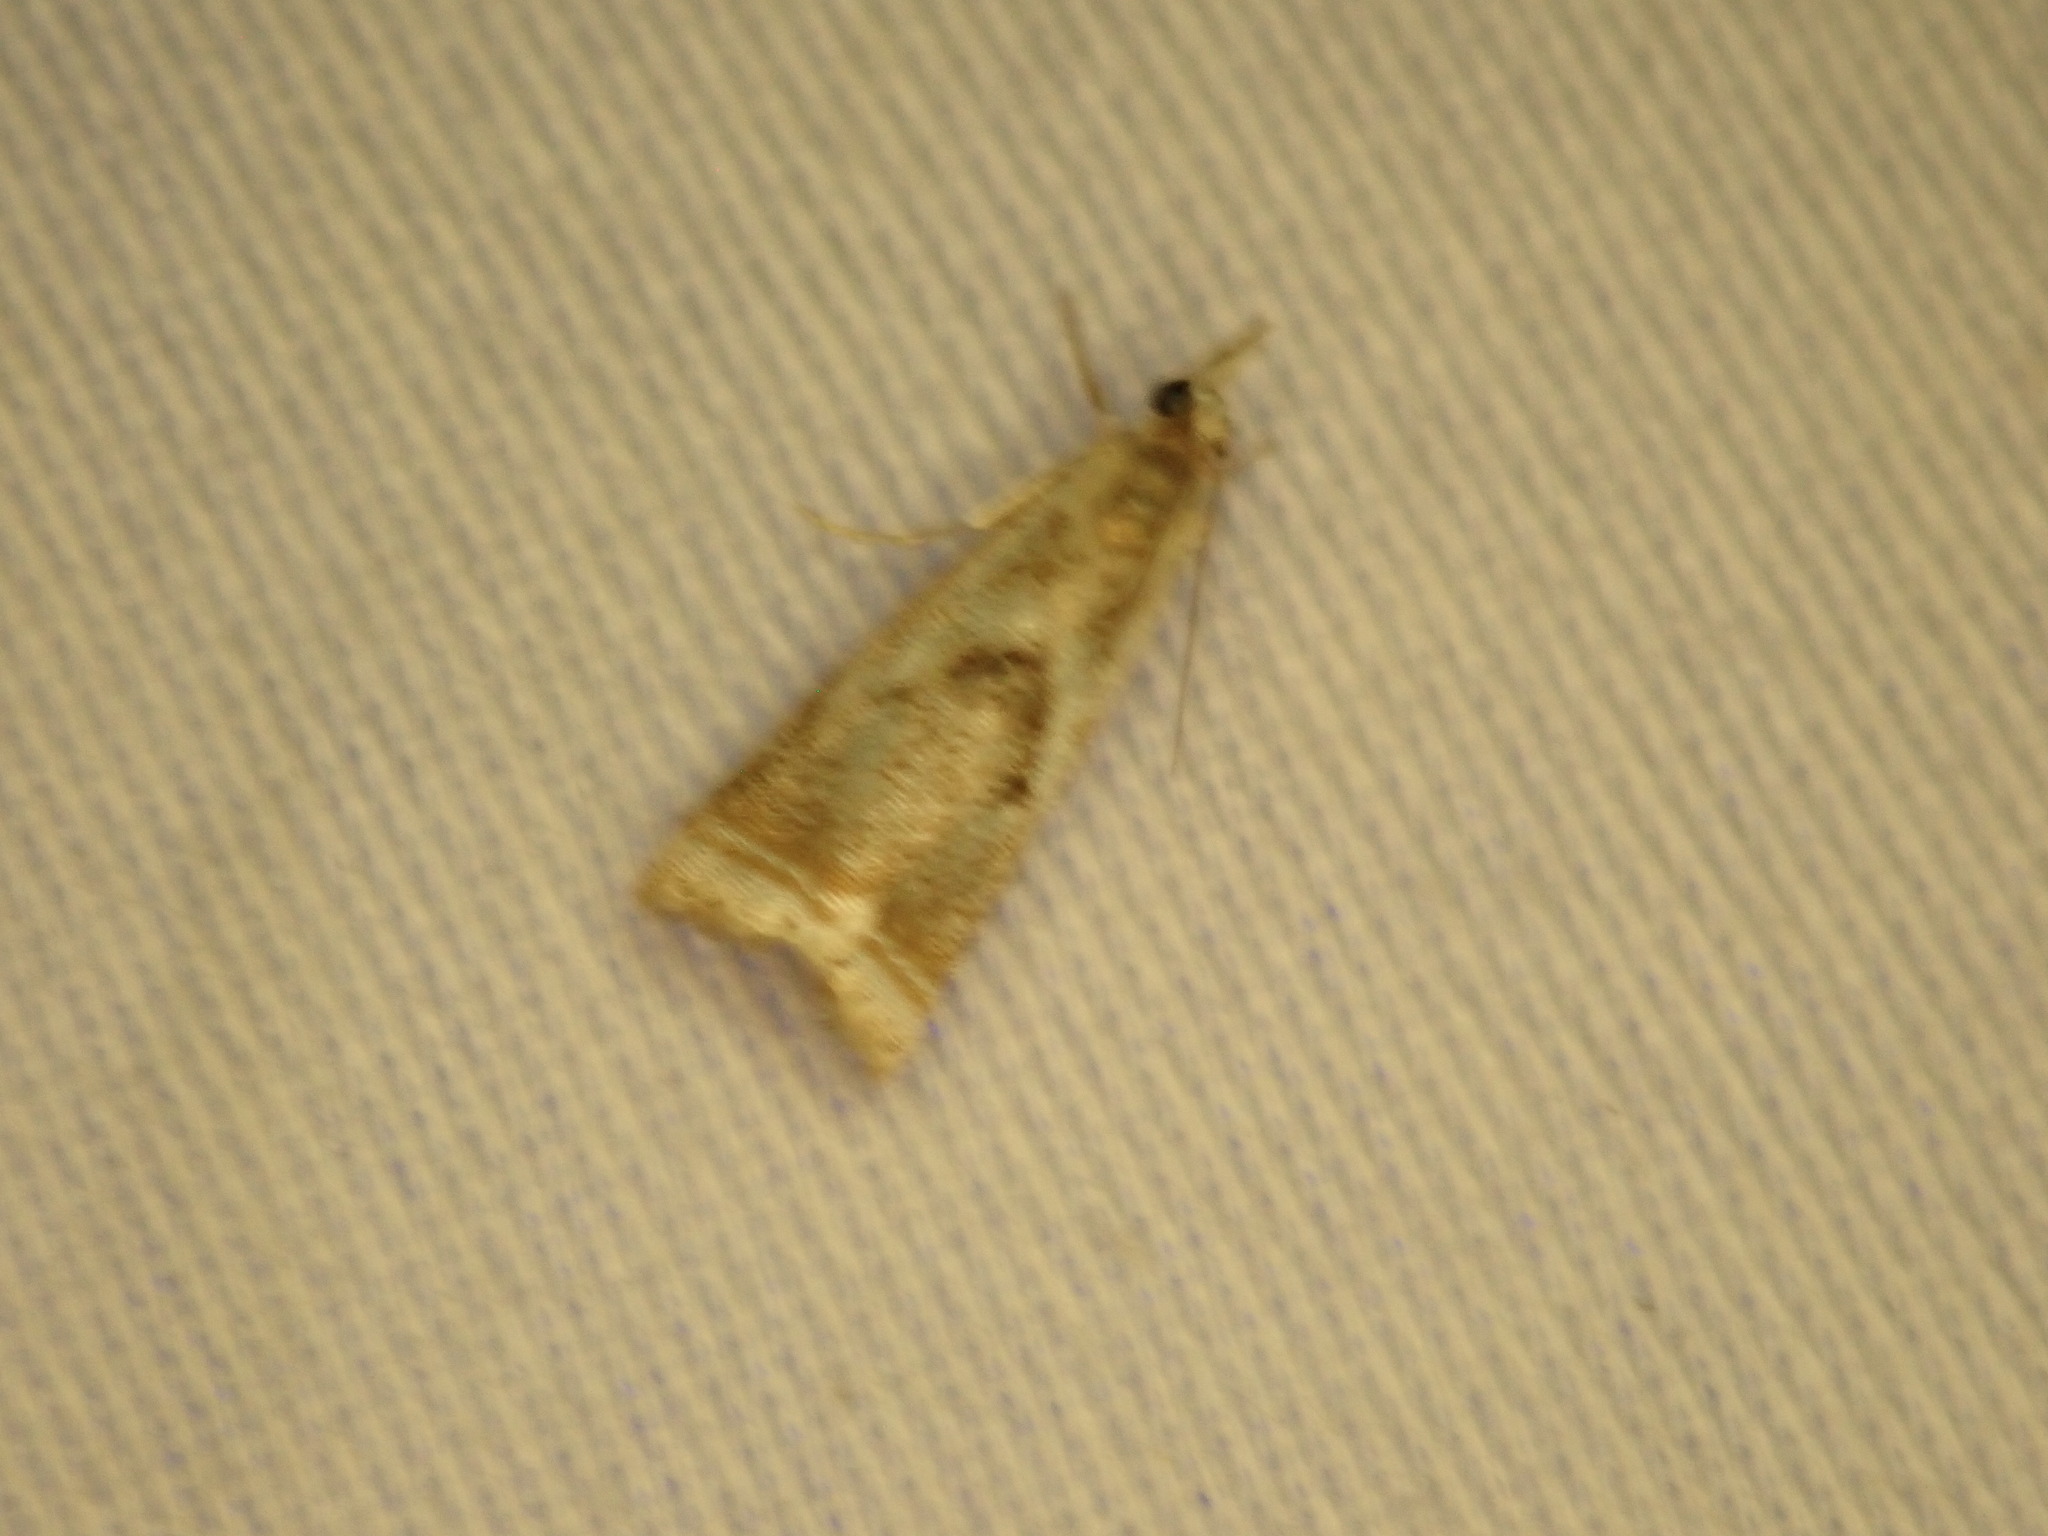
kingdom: Animalia
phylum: Arthropoda
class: Insecta
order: Lepidoptera
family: Crambidae
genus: Microcrambus
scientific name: Microcrambus elegans
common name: Elegant grass-veneer
